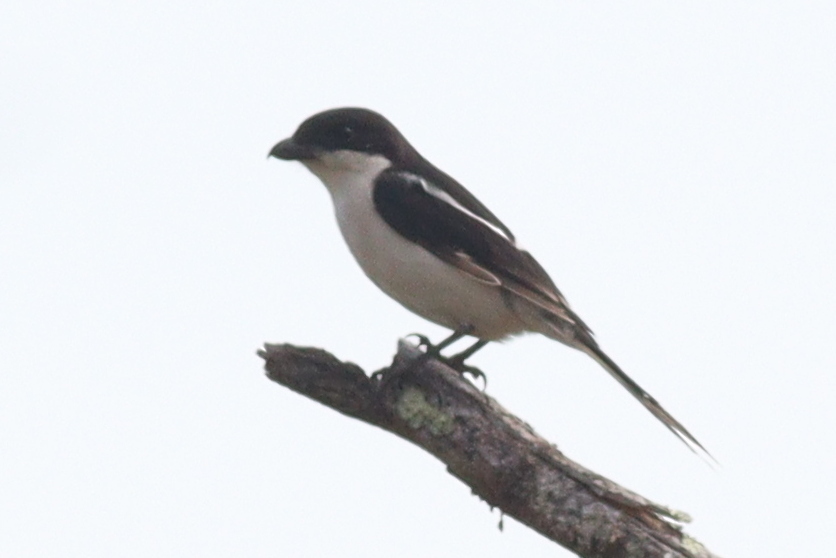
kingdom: Animalia
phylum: Chordata
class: Aves
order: Passeriformes
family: Laniidae
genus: Lanius
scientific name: Lanius humeralis
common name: Northern fiscal
